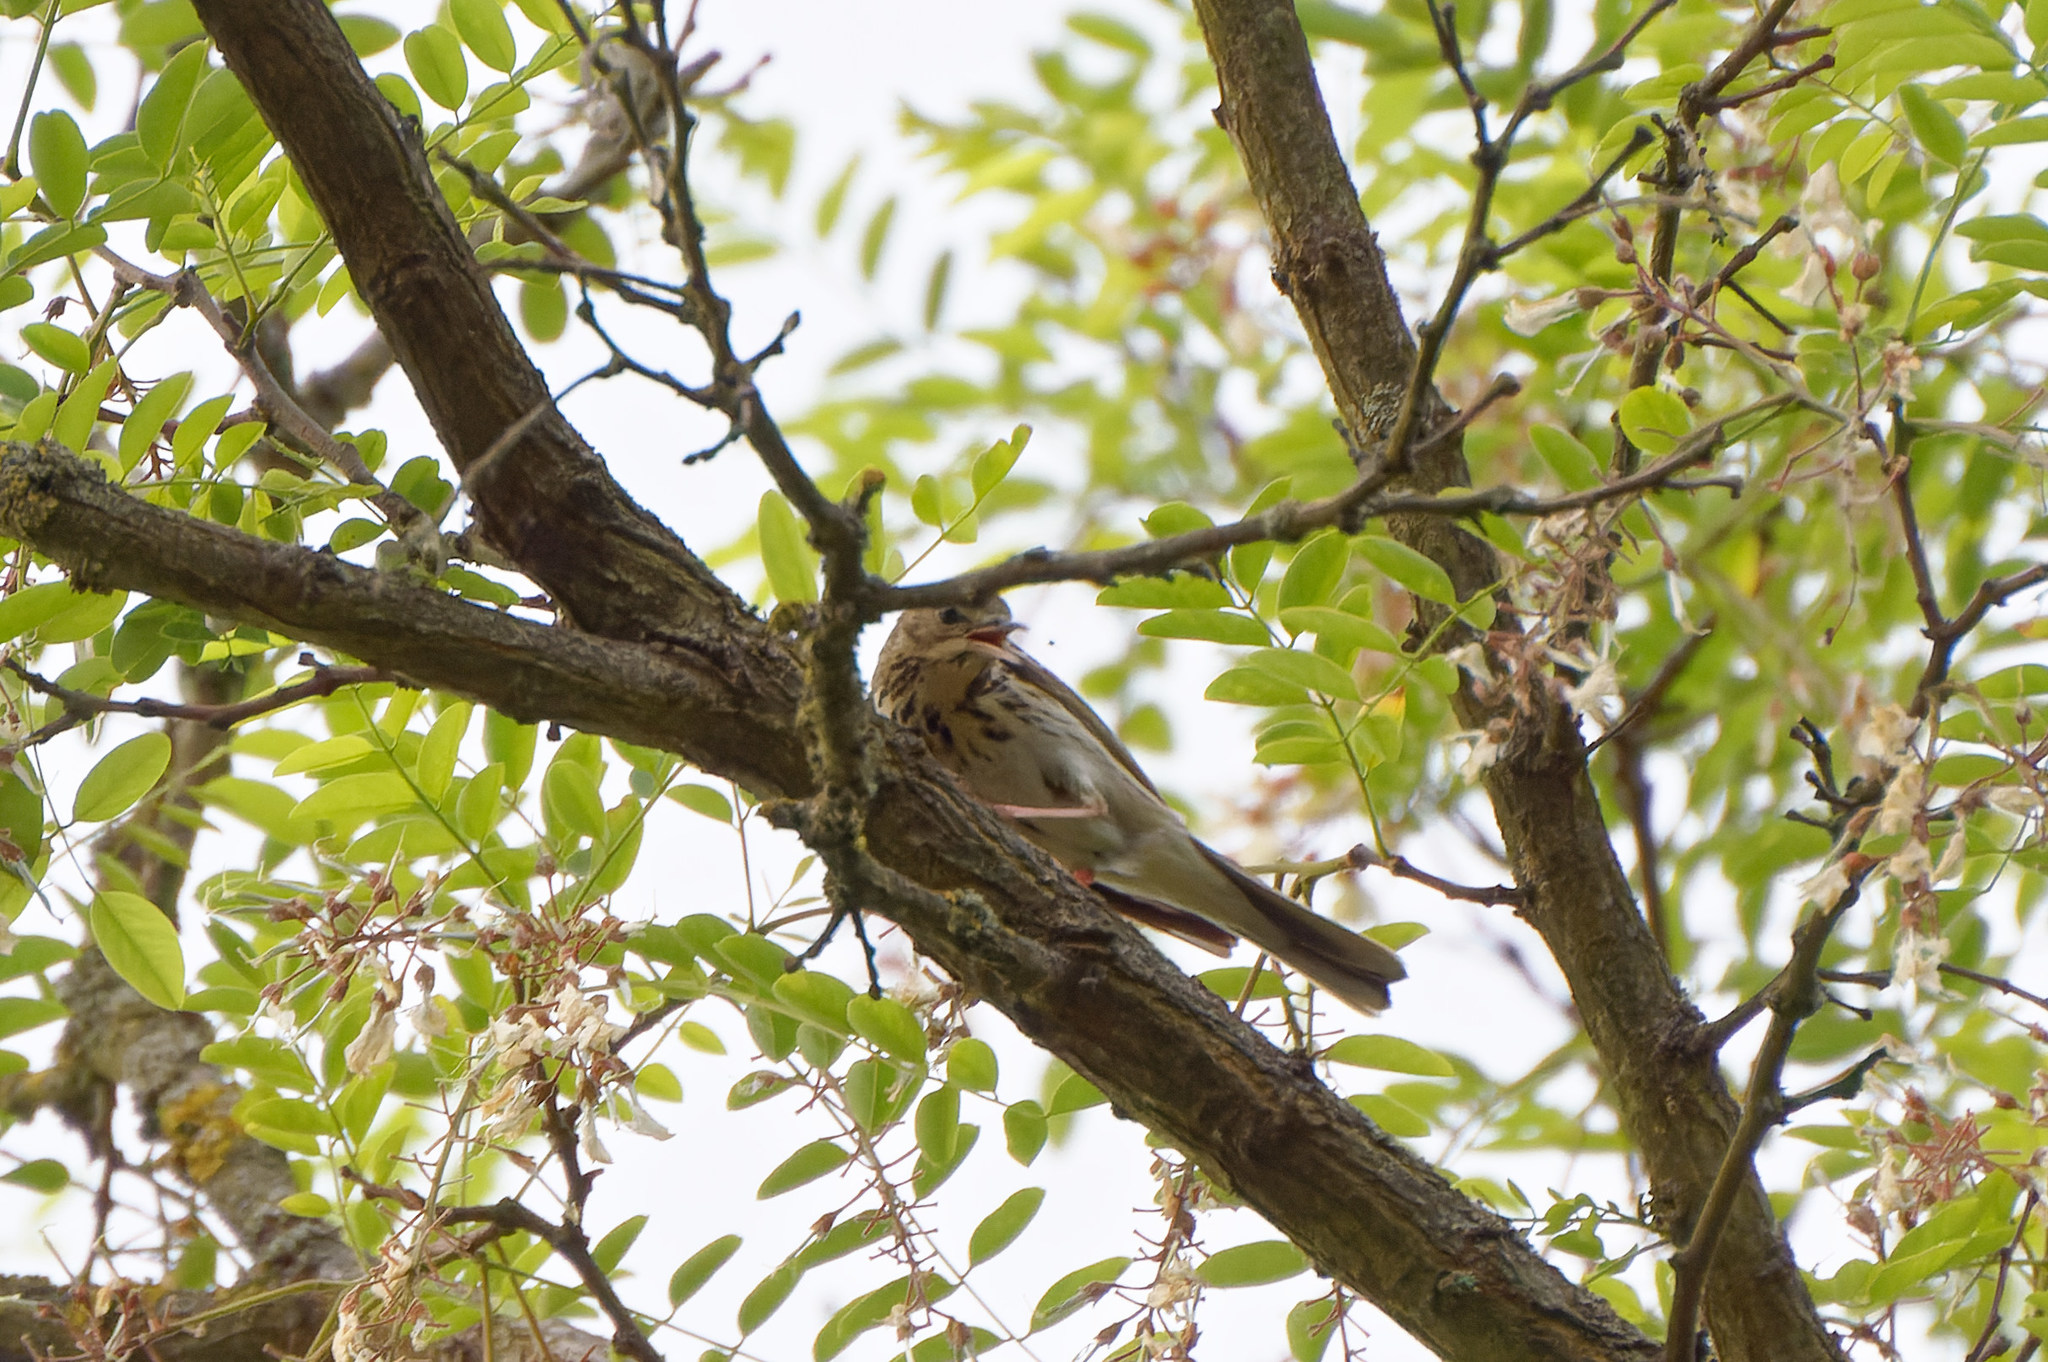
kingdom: Animalia
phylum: Chordata
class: Aves
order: Passeriformes
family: Motacillidae
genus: Anthus
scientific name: Anthus trivialis
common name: Tree pipit
